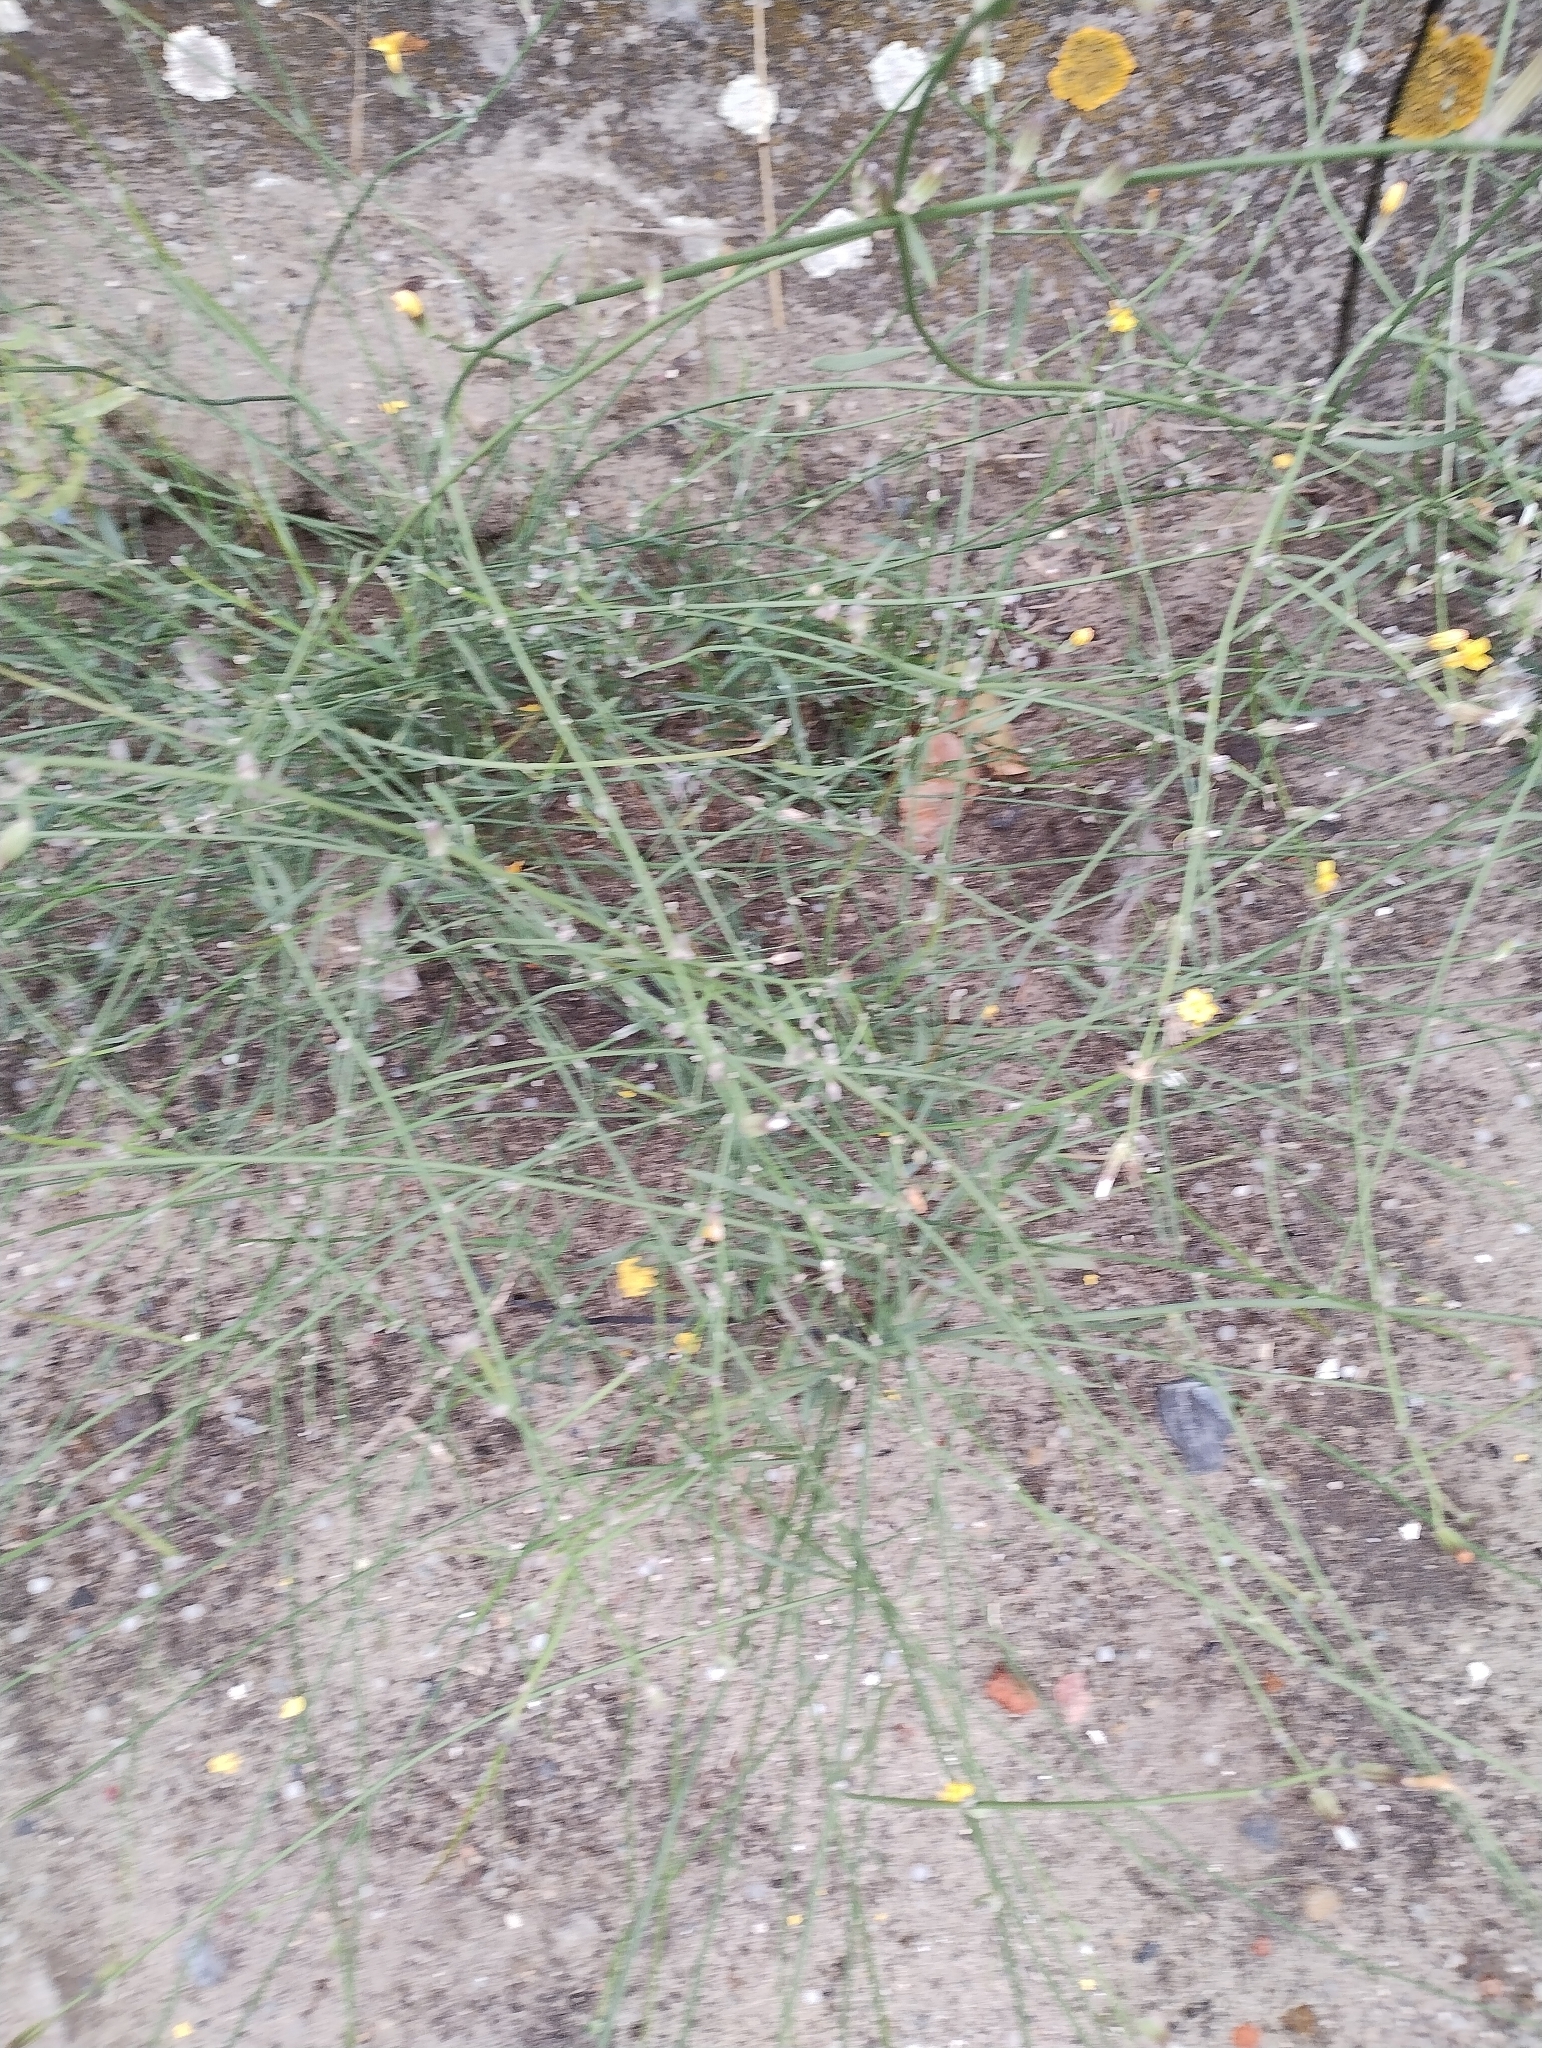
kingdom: Plantae
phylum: Tracheophyta
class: Magnoliopsida
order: Asterales
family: Asteraceae
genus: Chondrilla
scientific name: Chondrilla juncea
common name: Skeleton weed
